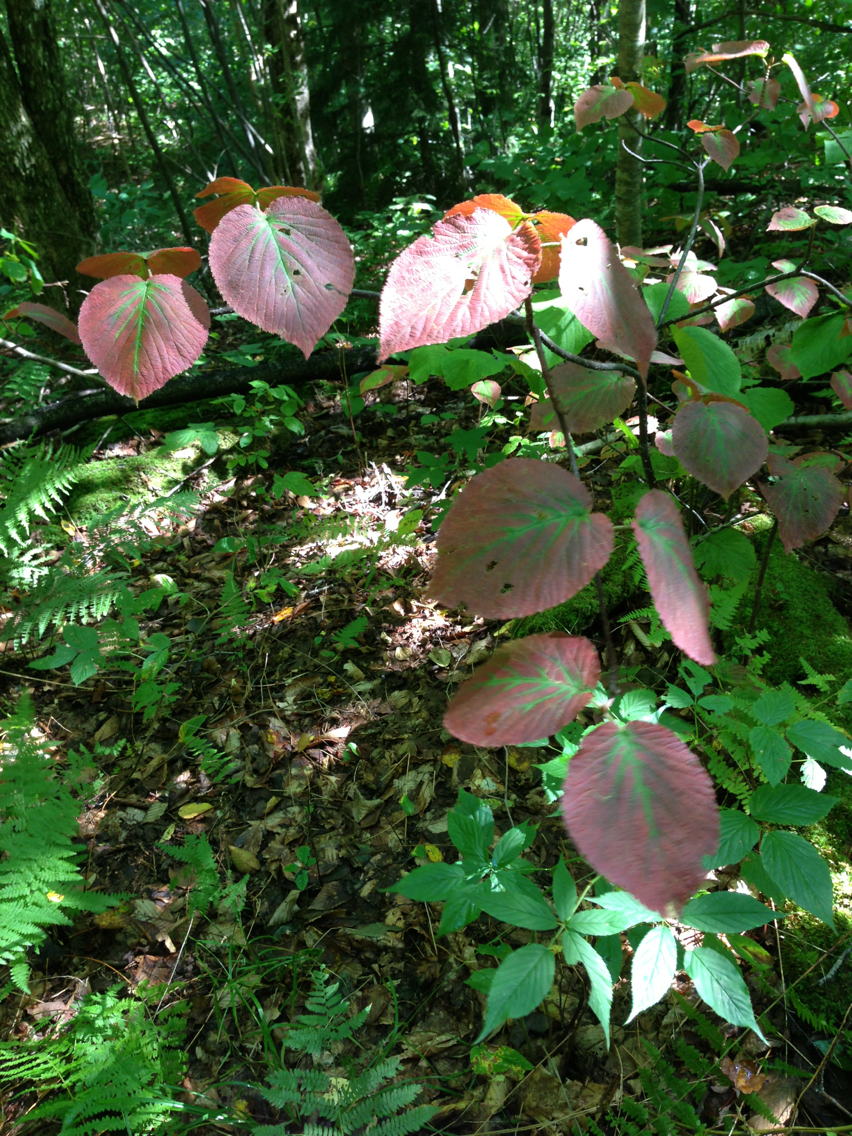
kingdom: Plantae
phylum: Tracheophyta
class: Magnoliopsida
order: Dipsacales
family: Viburnaceae
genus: Viburnum
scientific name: Viburnum lantanoides
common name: Hobblebush
